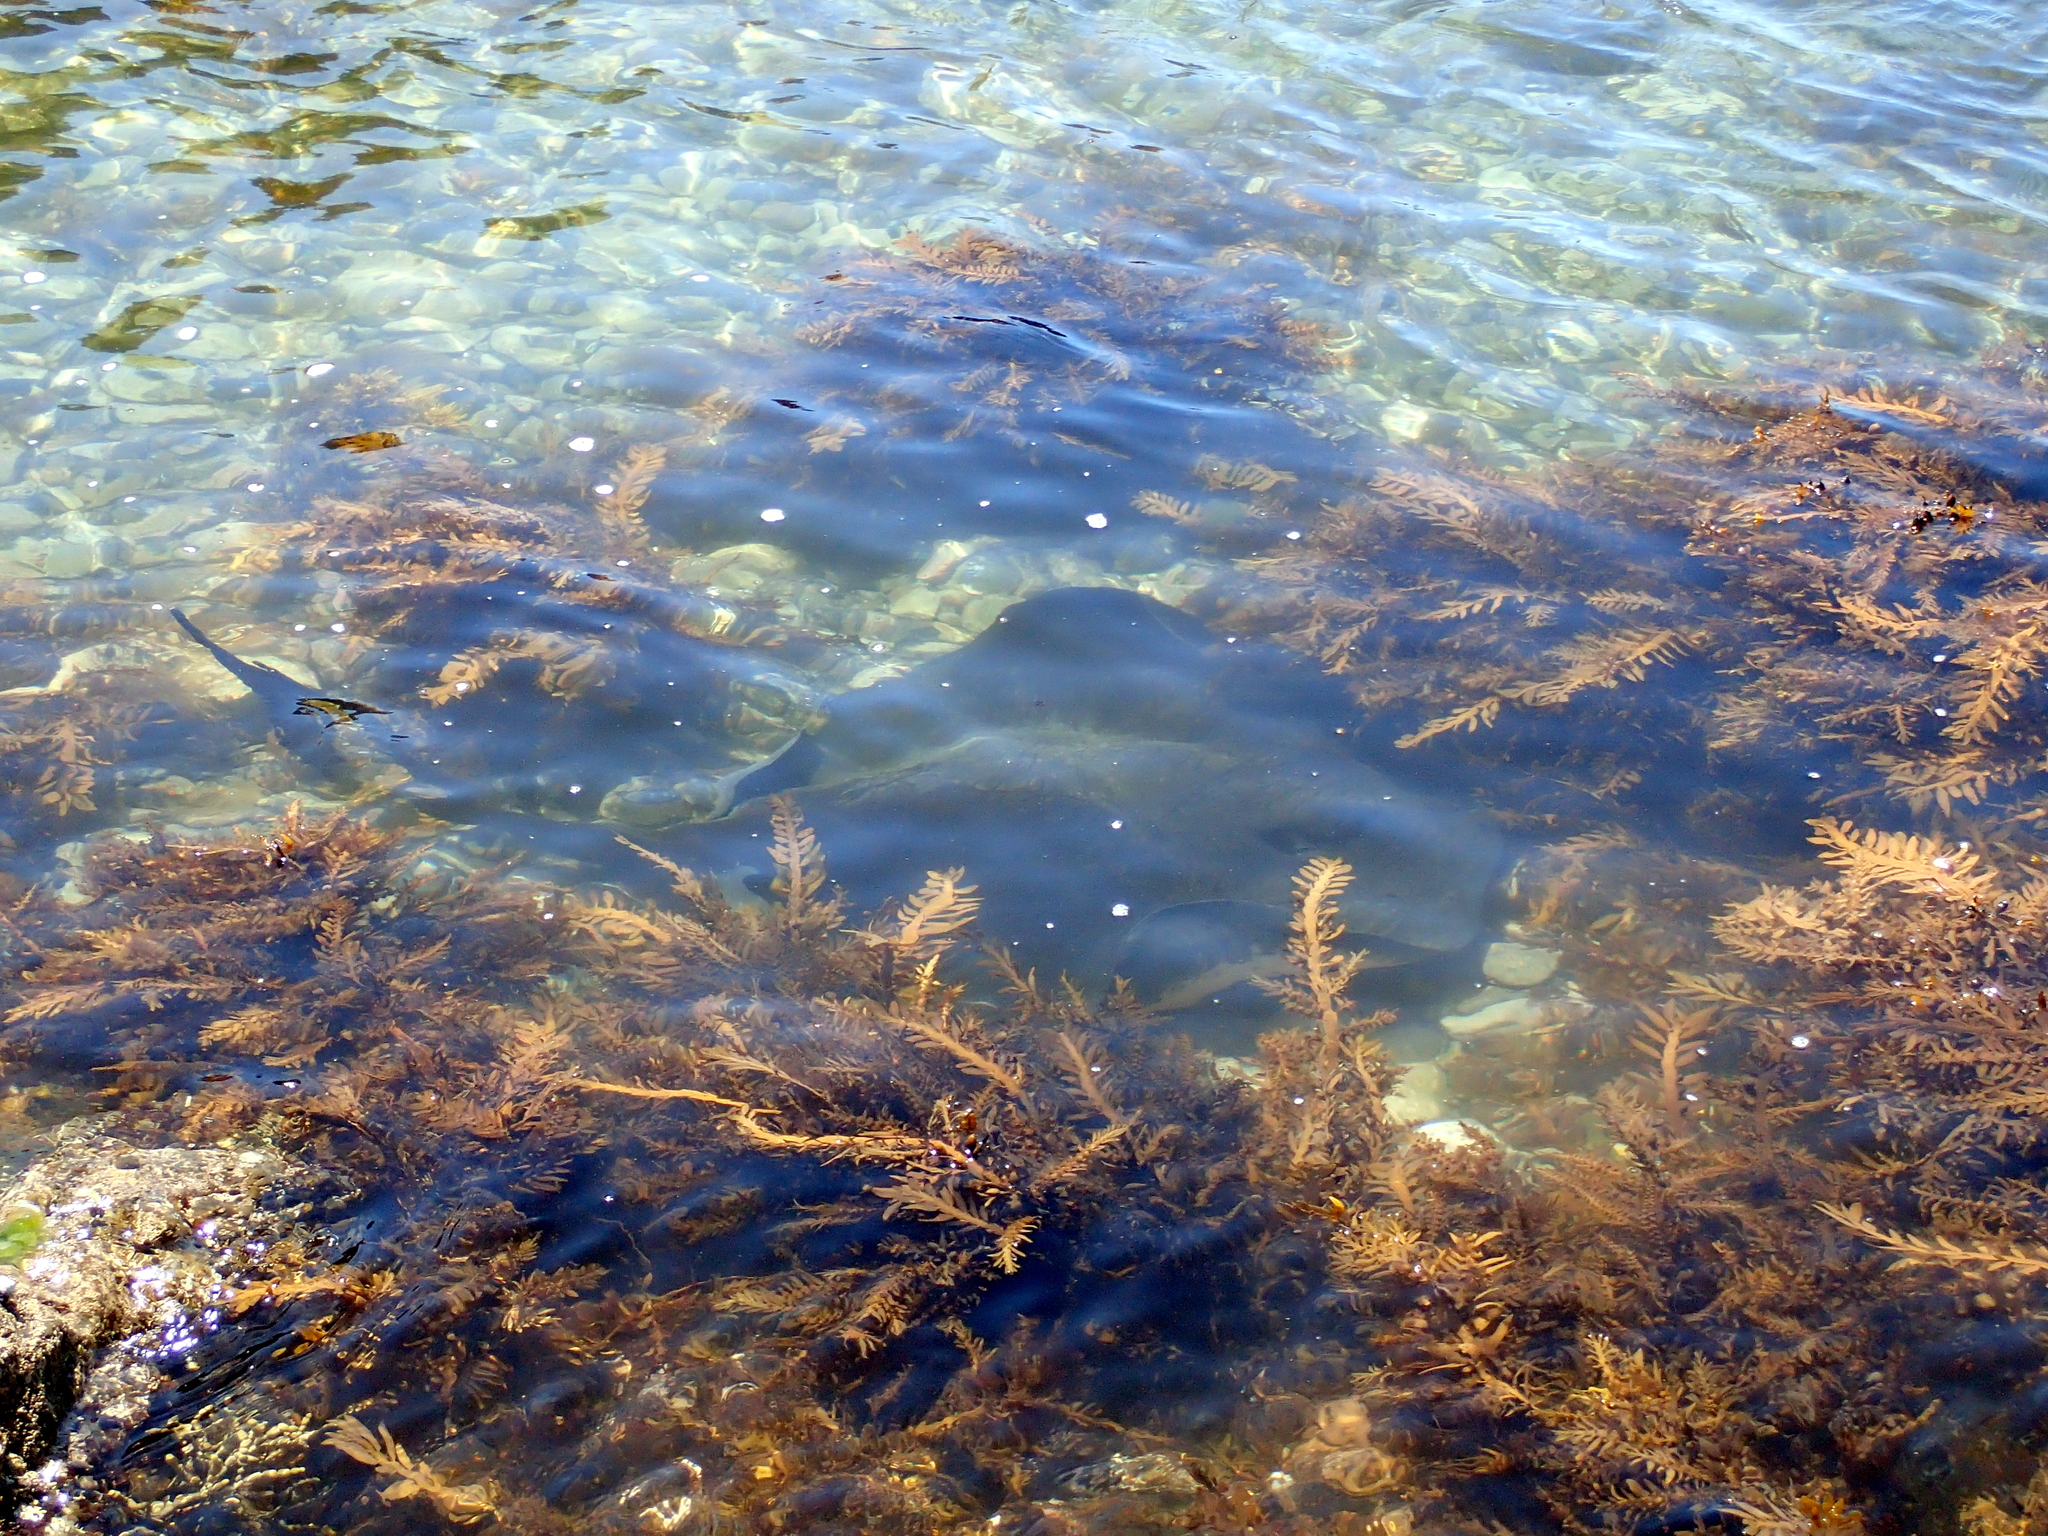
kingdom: Animalia
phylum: Chordata
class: Elasmobranchii
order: Myliobatiformes
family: Dasyatidae
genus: Bathytoshia
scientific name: Bathytoshia brevicaudata
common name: Short-tail stingray
